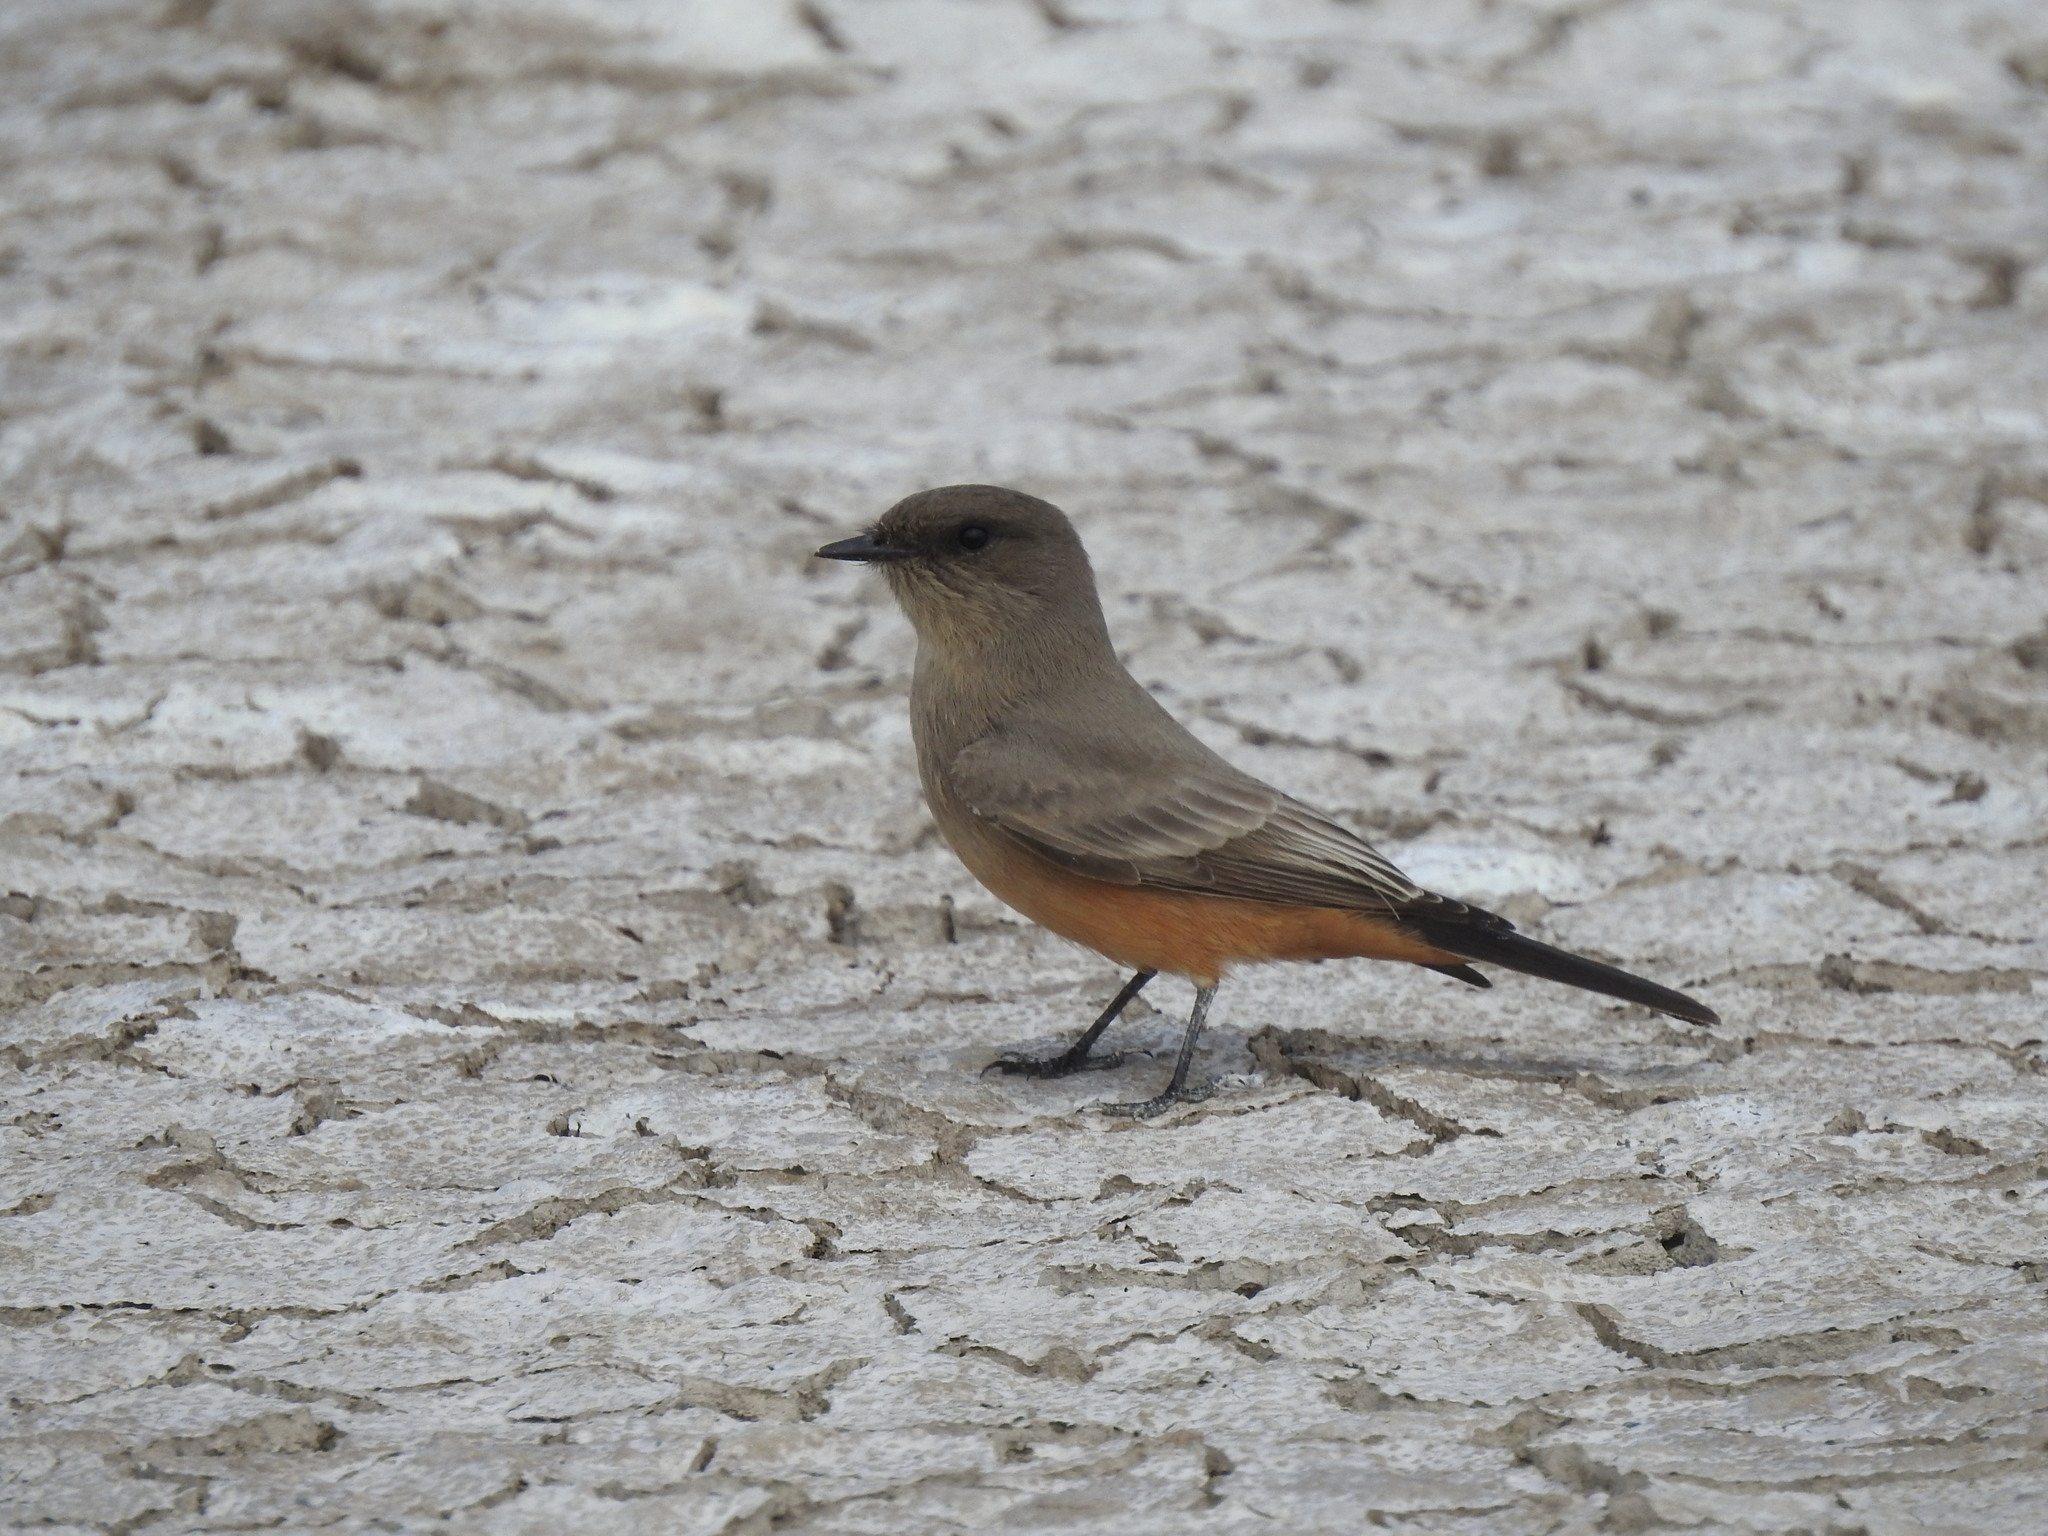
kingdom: Animalia
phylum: Chordata
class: Aves
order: Passeriformes
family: Tyrannidae
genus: Sayornis
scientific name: Sayornis saya
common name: Say's phoebe
